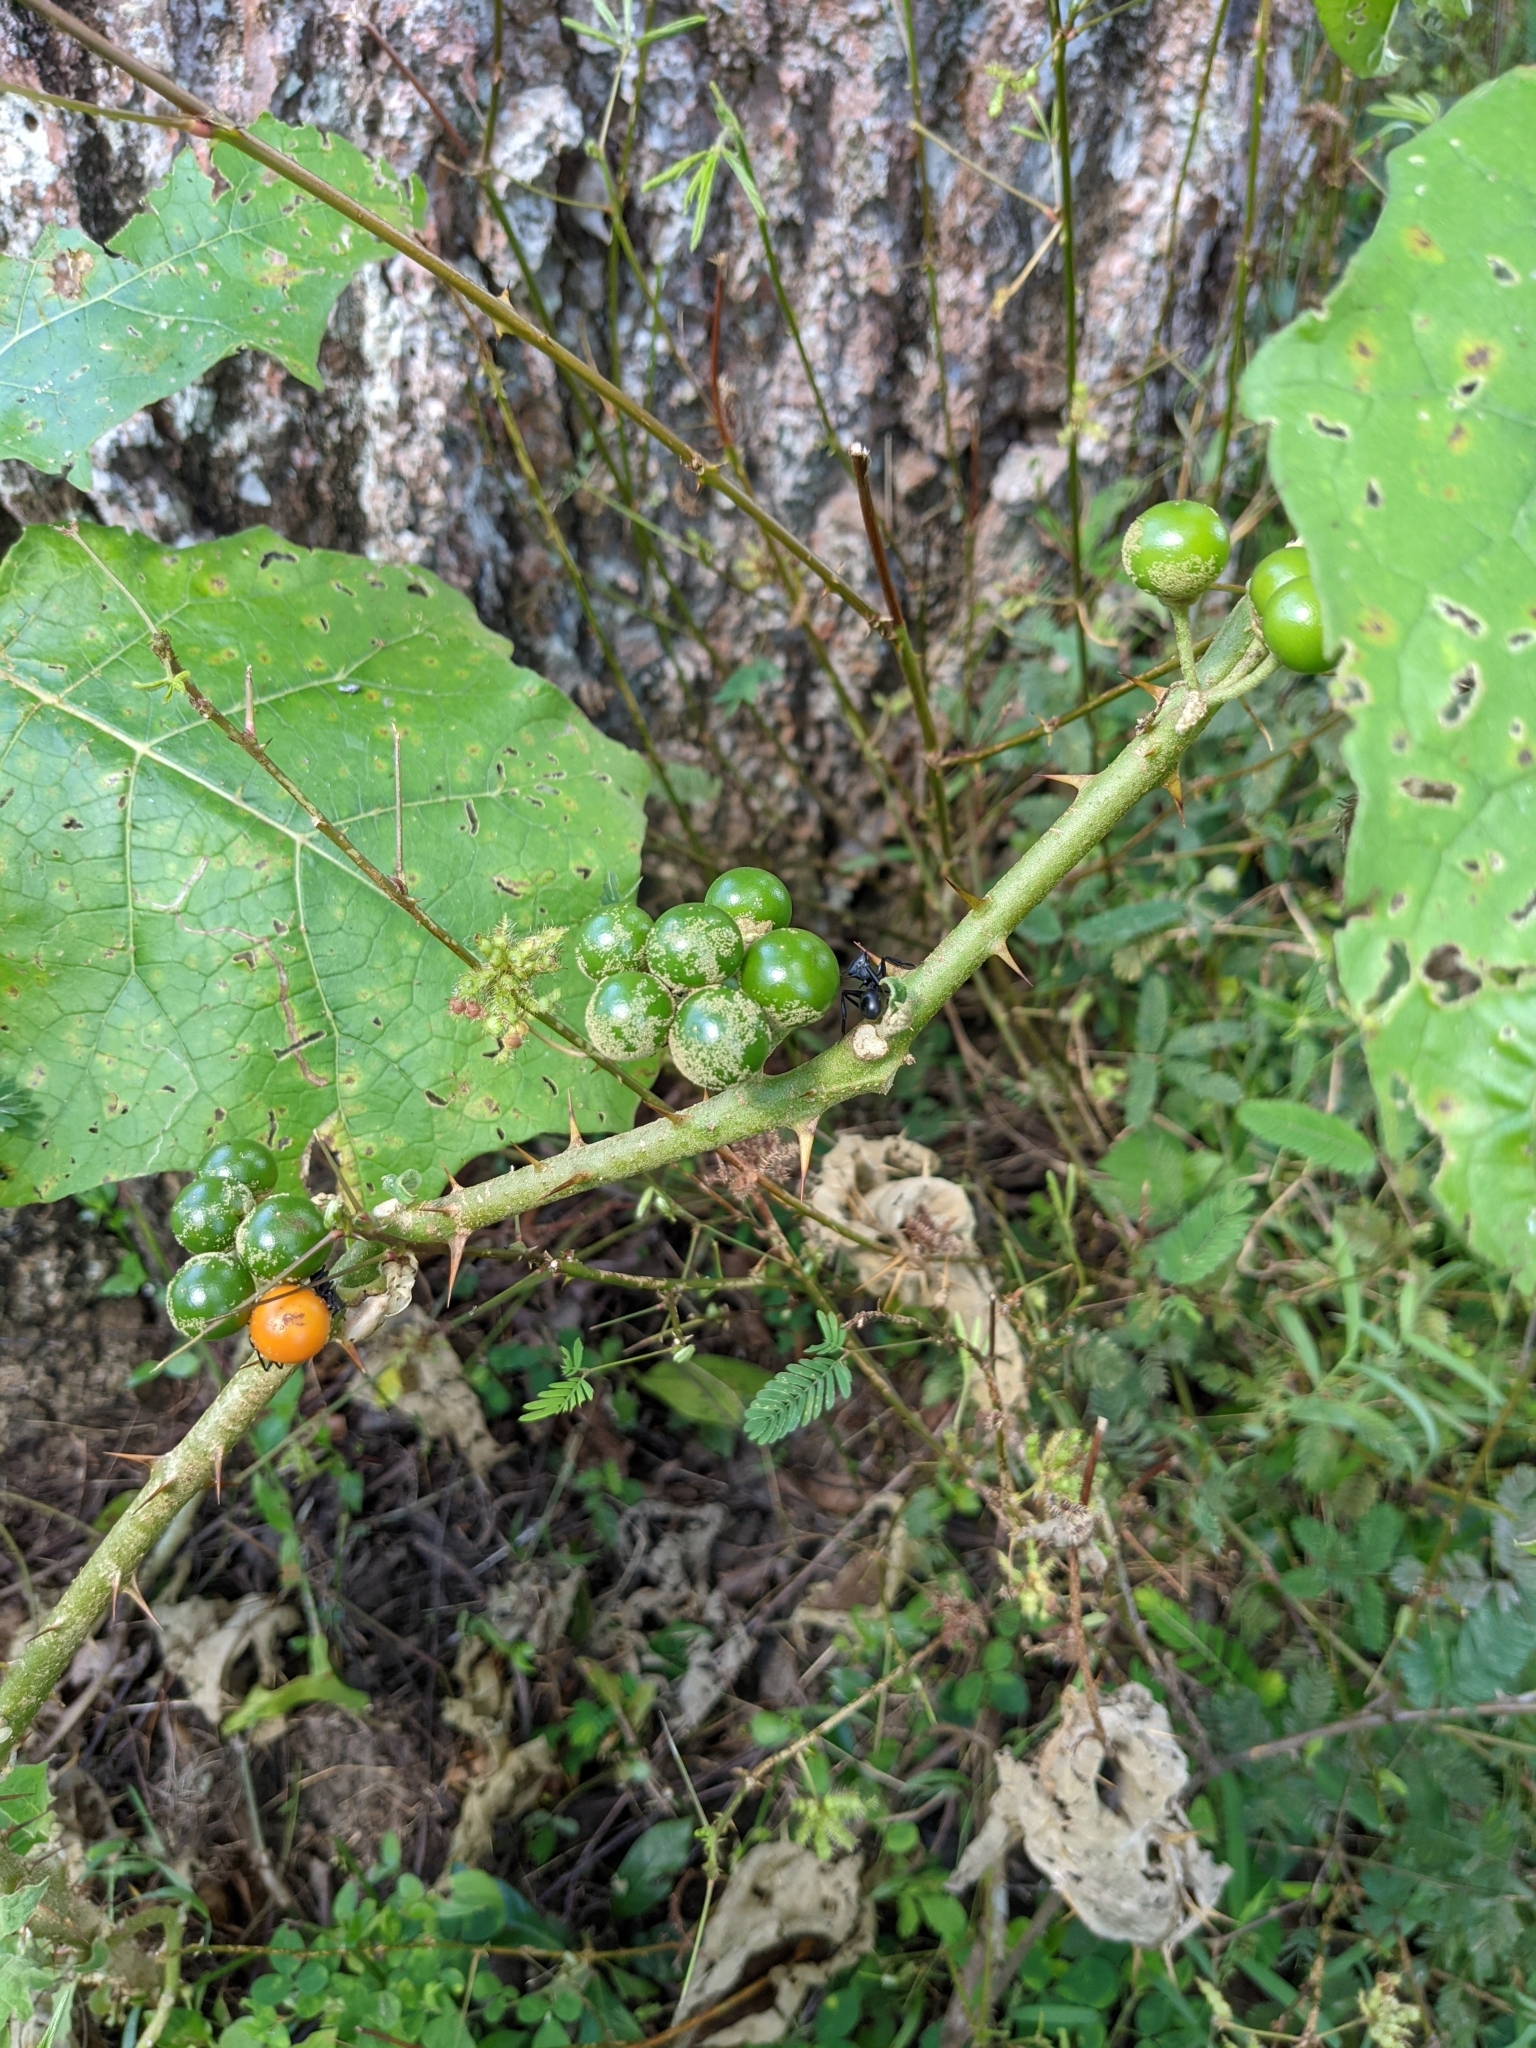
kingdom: Plantae
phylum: Tracheophyta
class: Magnoliopsida
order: Solanales
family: Solanaceae
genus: Solanum
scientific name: Solanum
